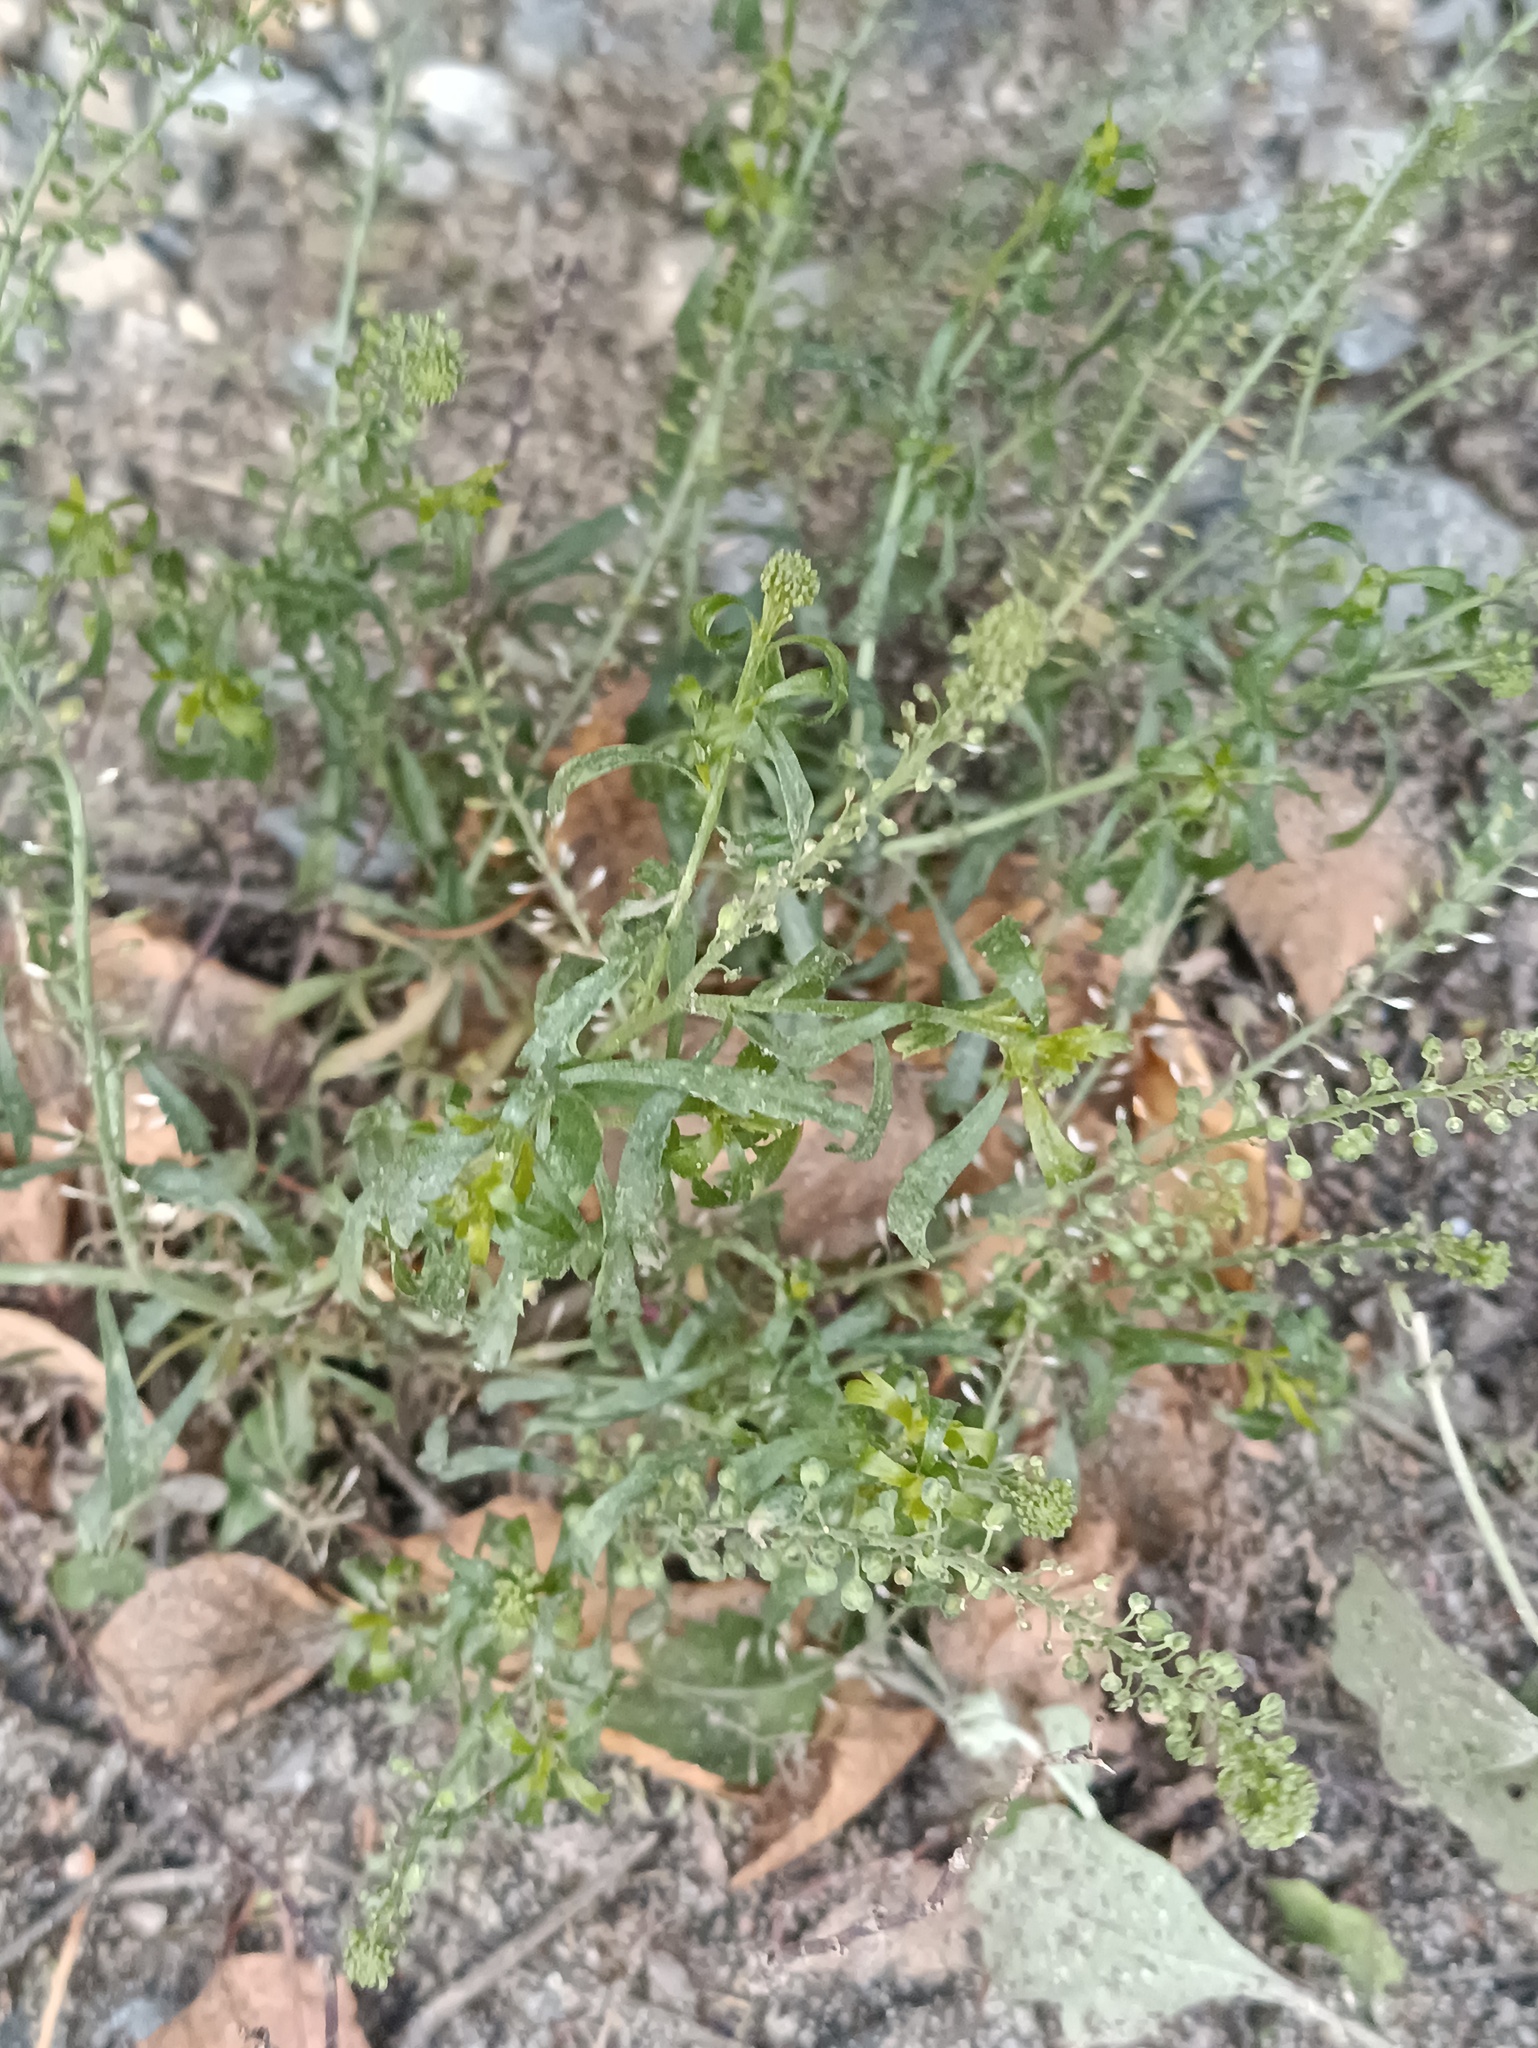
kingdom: Plantae
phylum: Tracheophyta
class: Magnoliopsida
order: Brassicales
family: Brassicaceae
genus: Lepidium
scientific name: Lepidium densiflorum
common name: Miner's pepperwort
